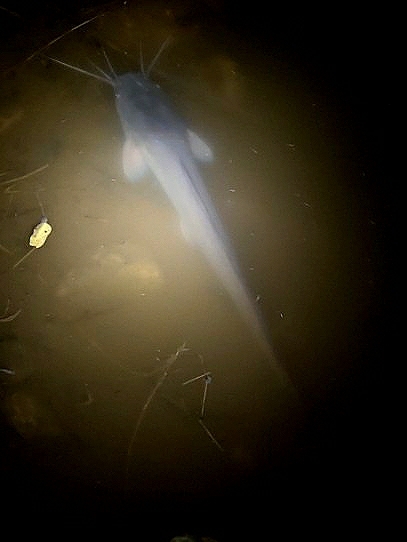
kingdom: Animalia
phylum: Chordata
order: Siluriformes
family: Clariidae
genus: Clarias
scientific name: Clarias gariepinus
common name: African catfish
